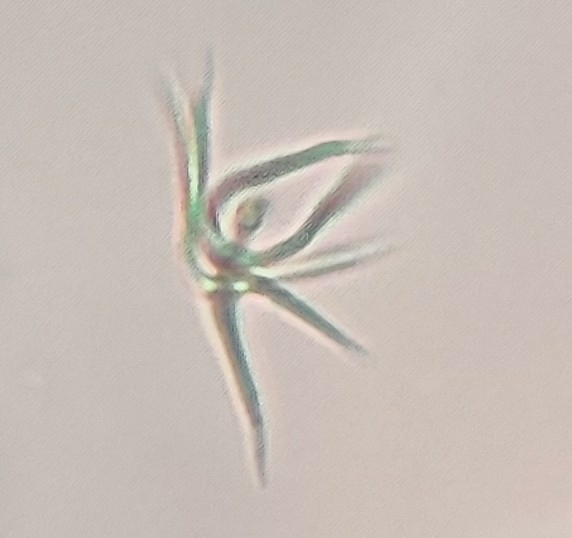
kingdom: Plantae
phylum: Chlorophyta
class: Chlorophyceae
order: Sphaeropleales
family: Selenastraceae
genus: Ankistrodesmus
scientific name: Ankistrodesmus spiralis
